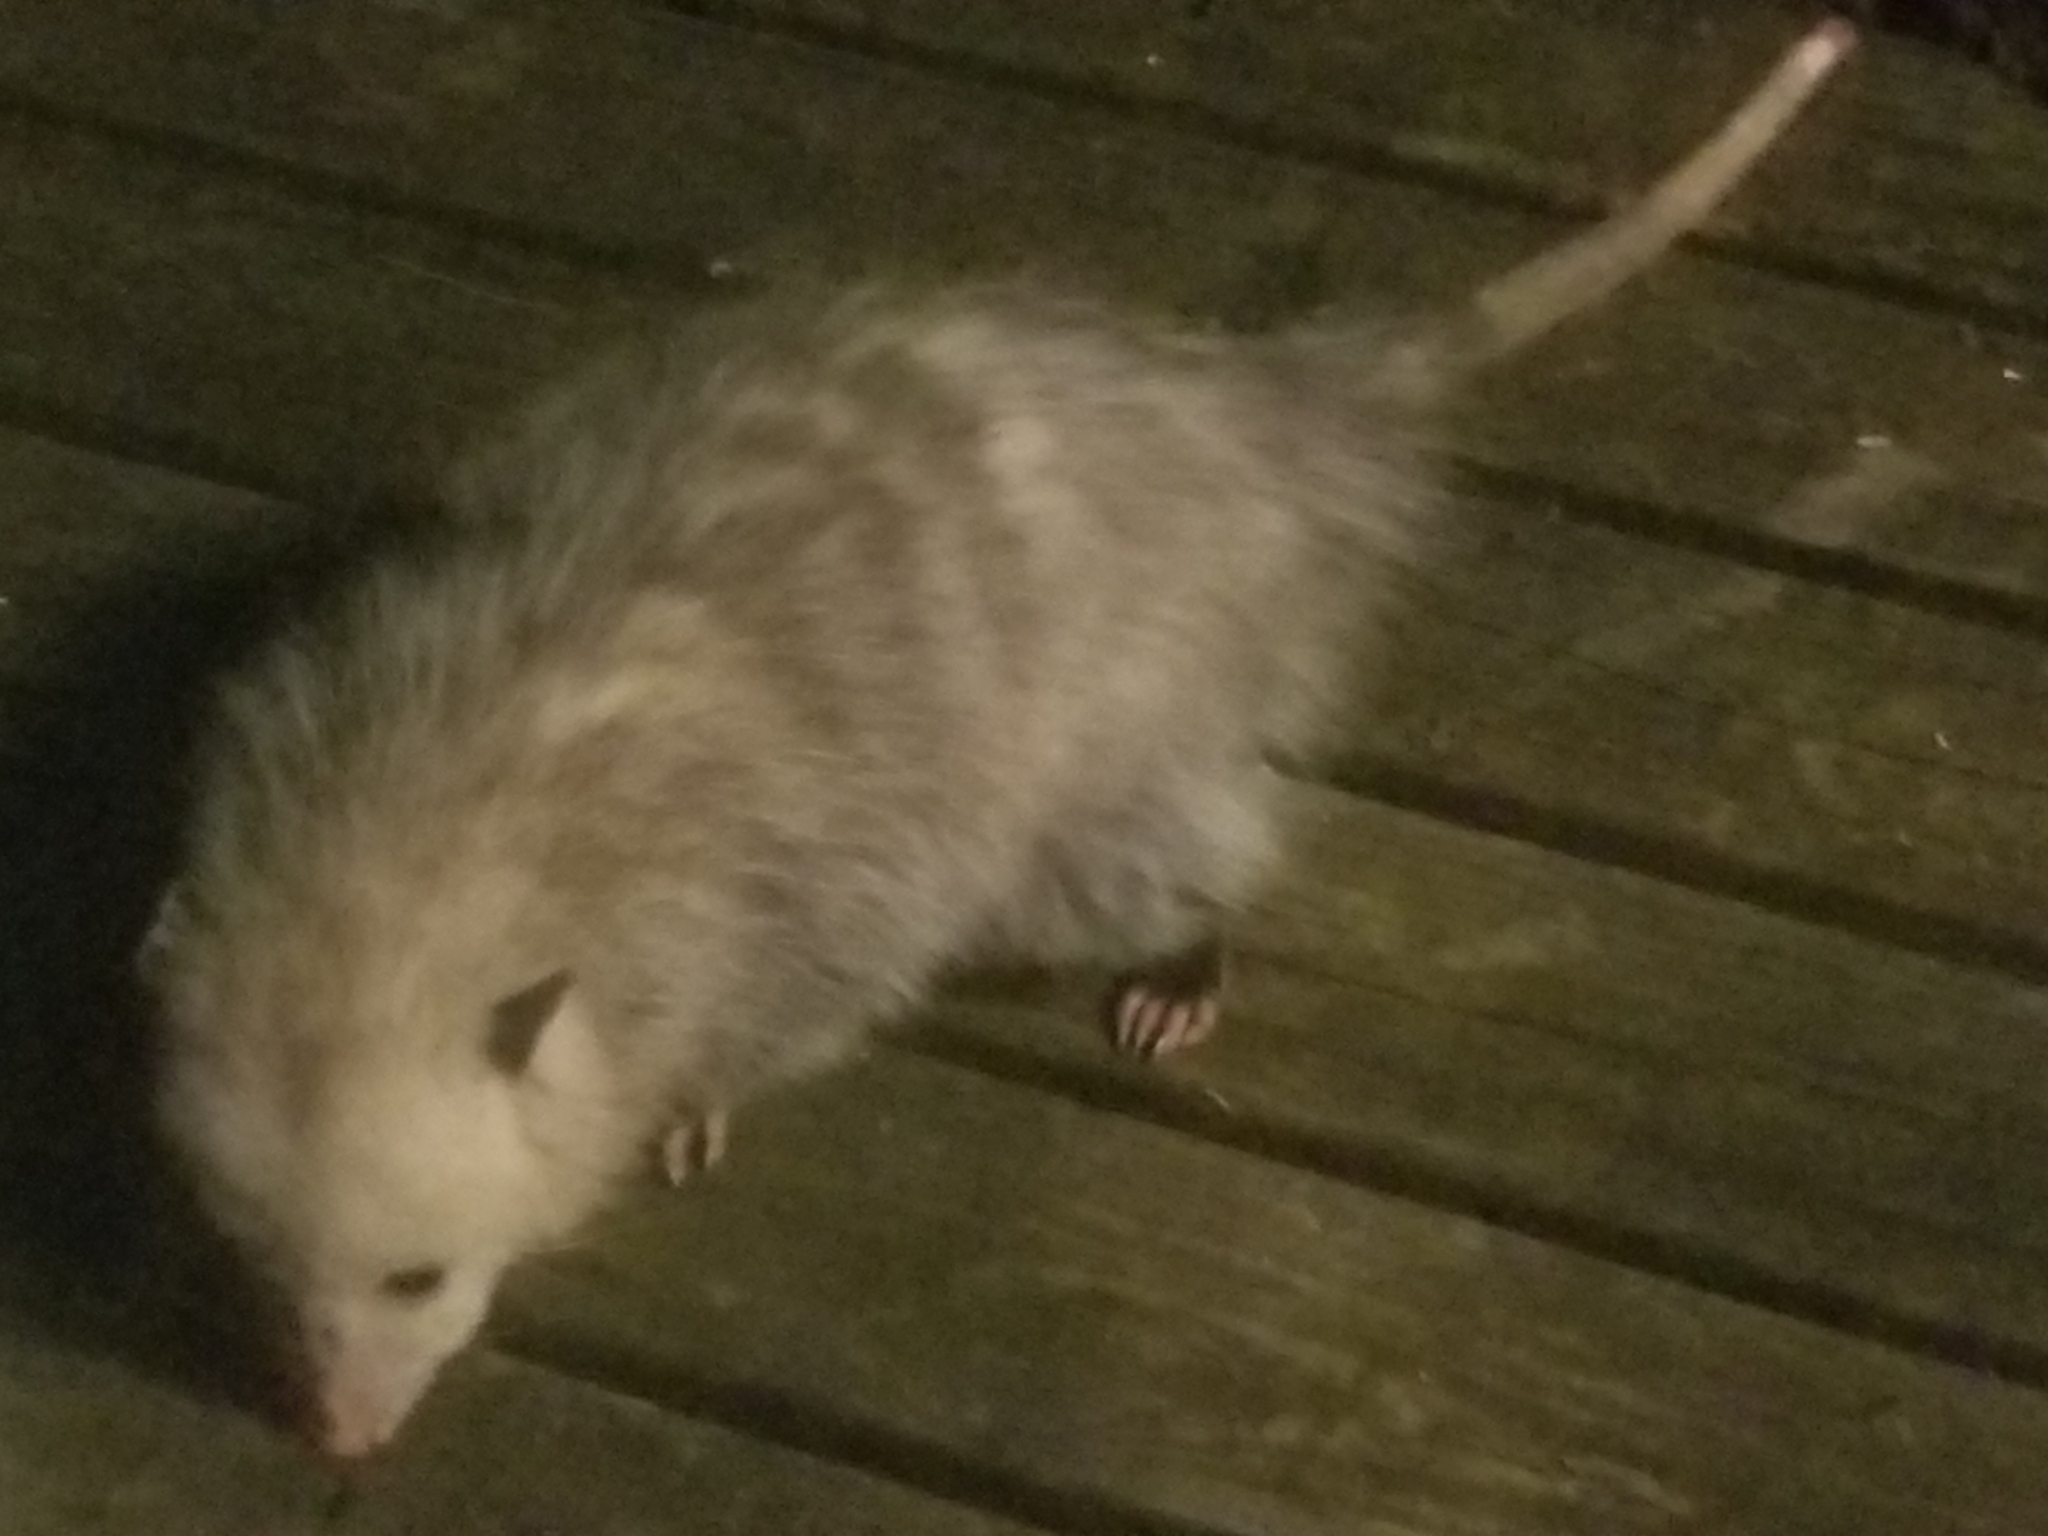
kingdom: Animalia
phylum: Chordata
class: Mammalia
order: Didelphimorphia
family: Didelphidae
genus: Didelphis
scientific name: Didelphis virginiana
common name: Virginia opossum
